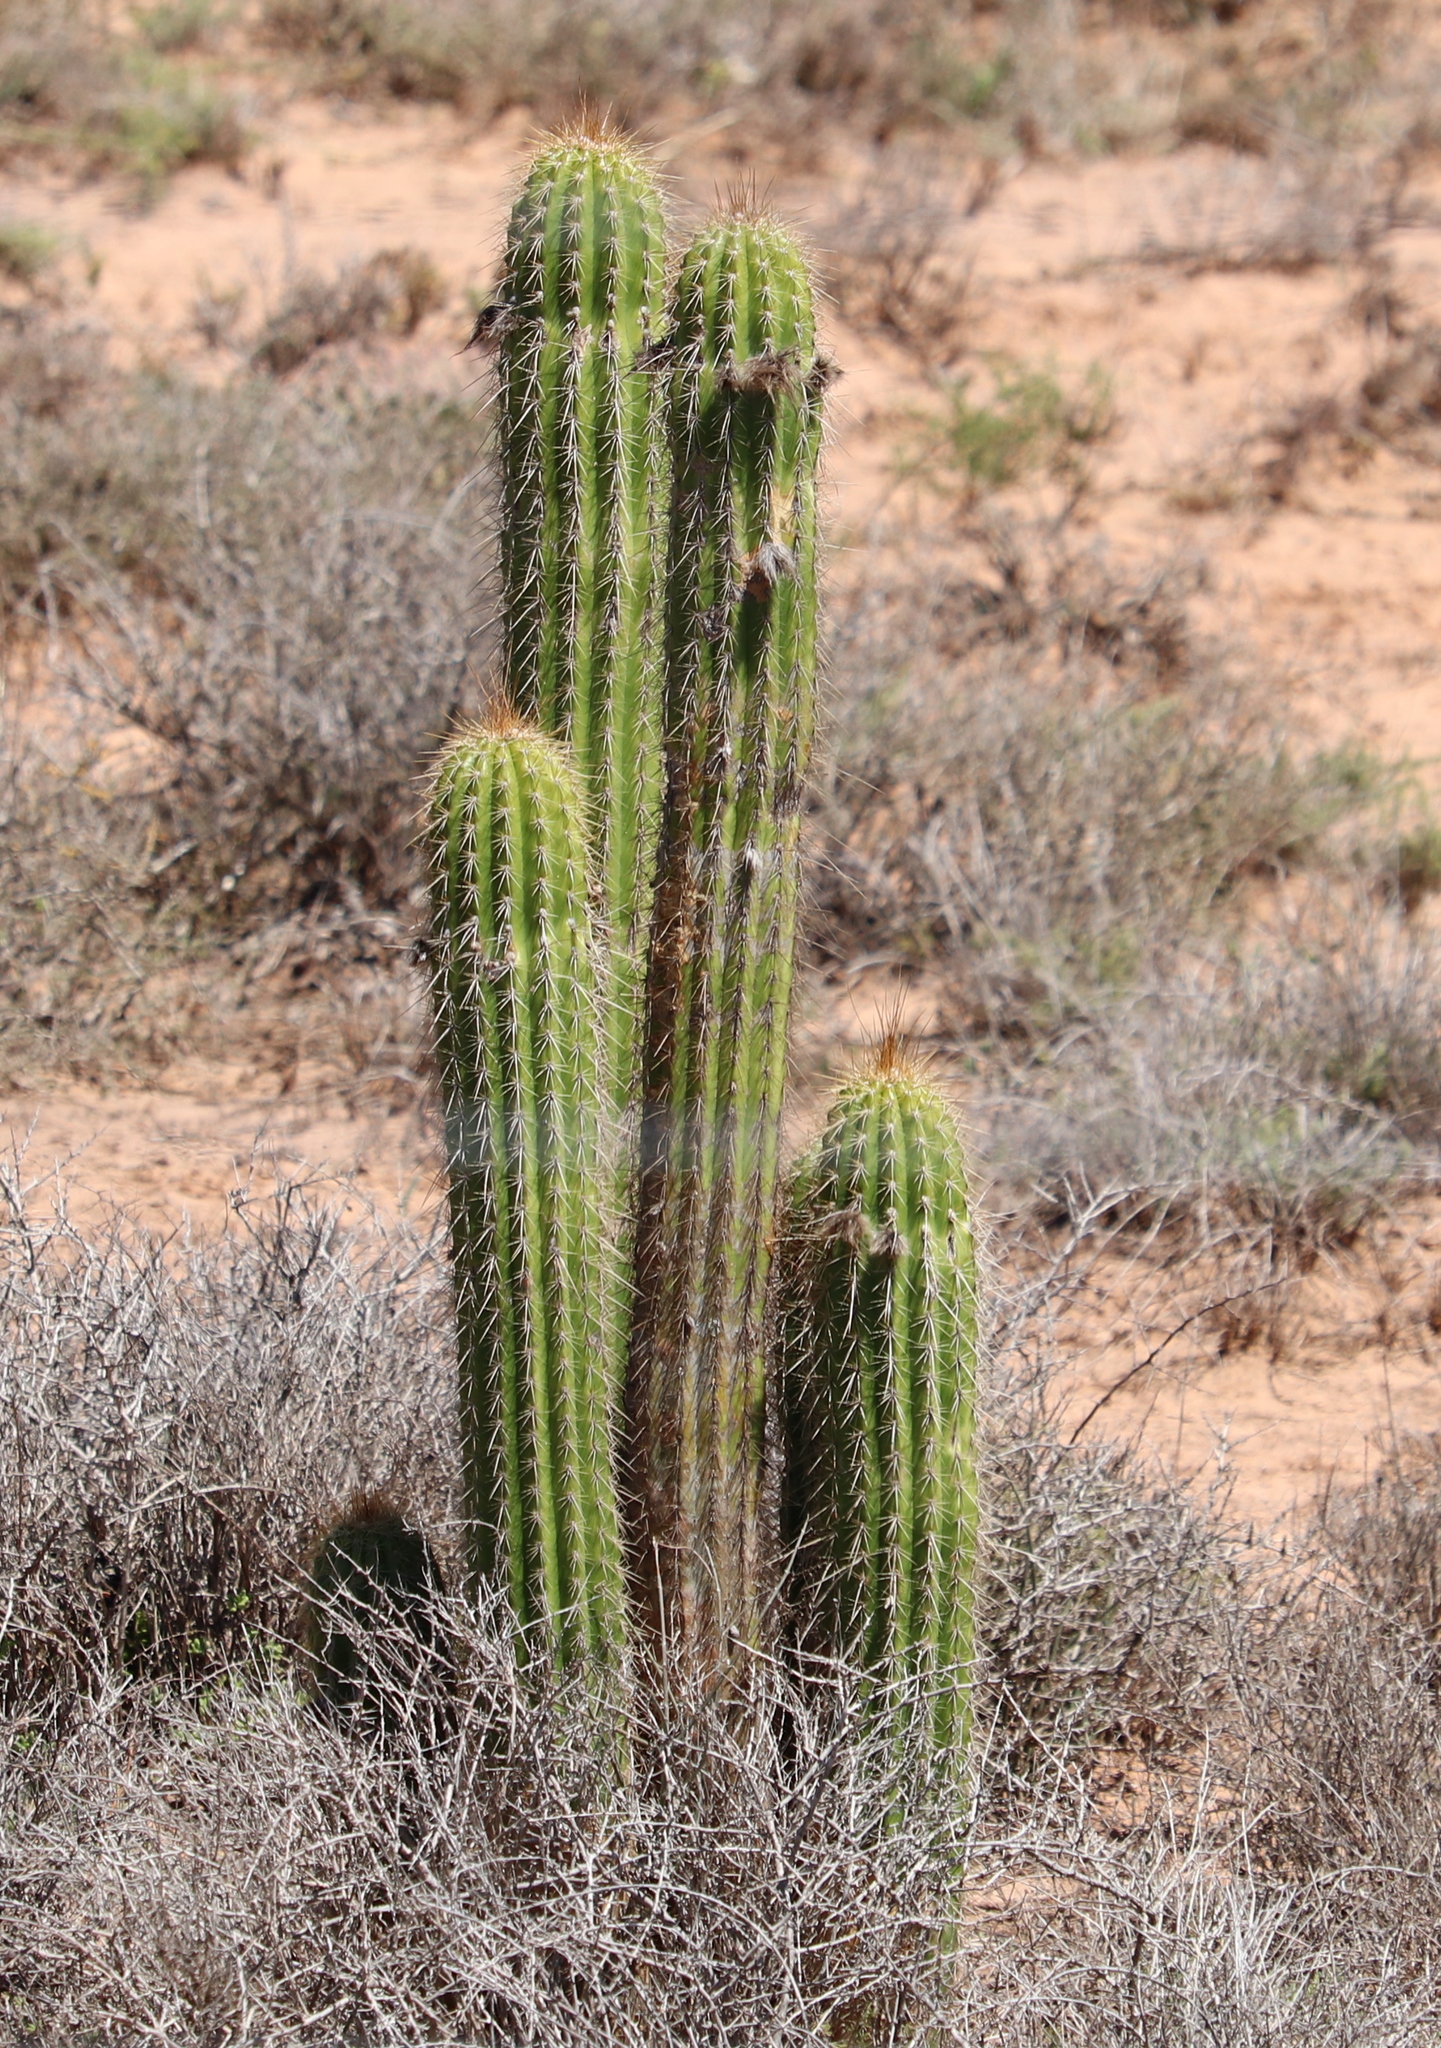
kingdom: Plantae
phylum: Tracheophyta
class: Magnoliopsida
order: Caryophyllales
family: Cactaceae
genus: Soehrensia
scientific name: Soehrensia spachiana
